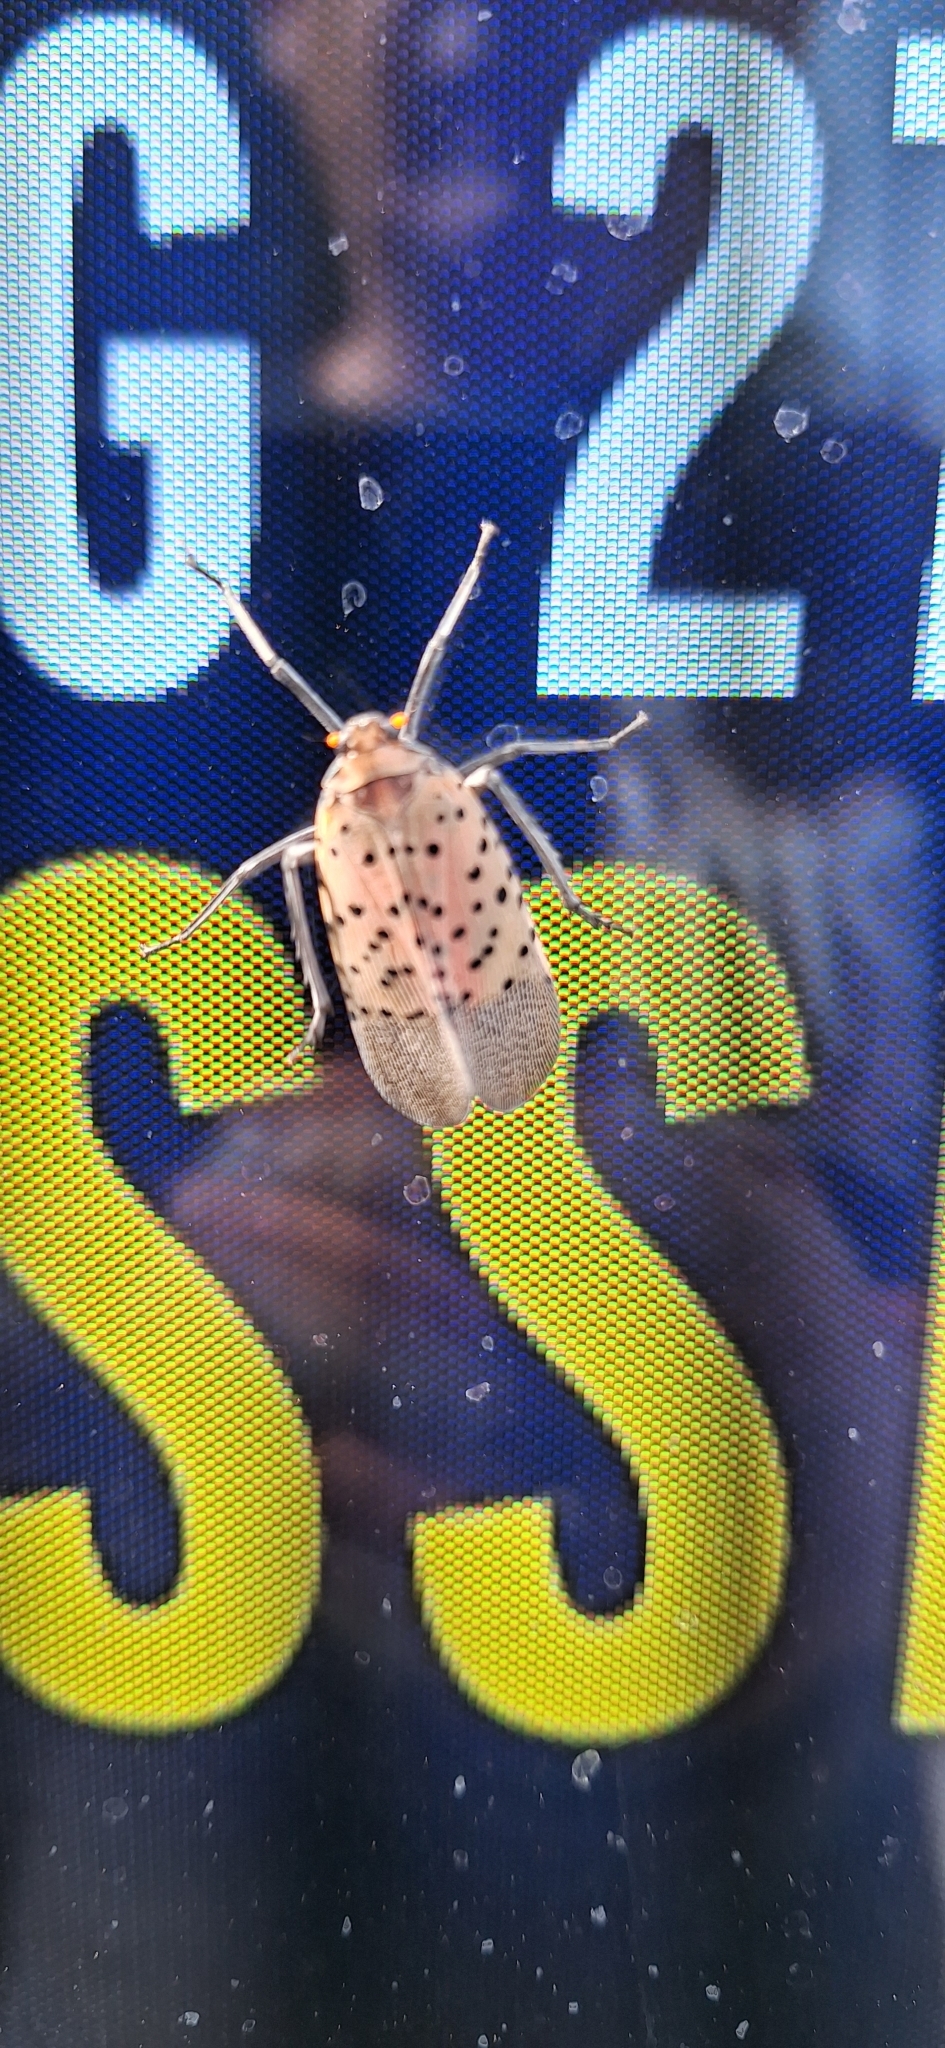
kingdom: Animalia
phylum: Arthropoda
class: Insecta
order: Hemiptera
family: Fulgoridae
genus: Lycorma
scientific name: Lycorma delicatula
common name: Spotted lanternfly
